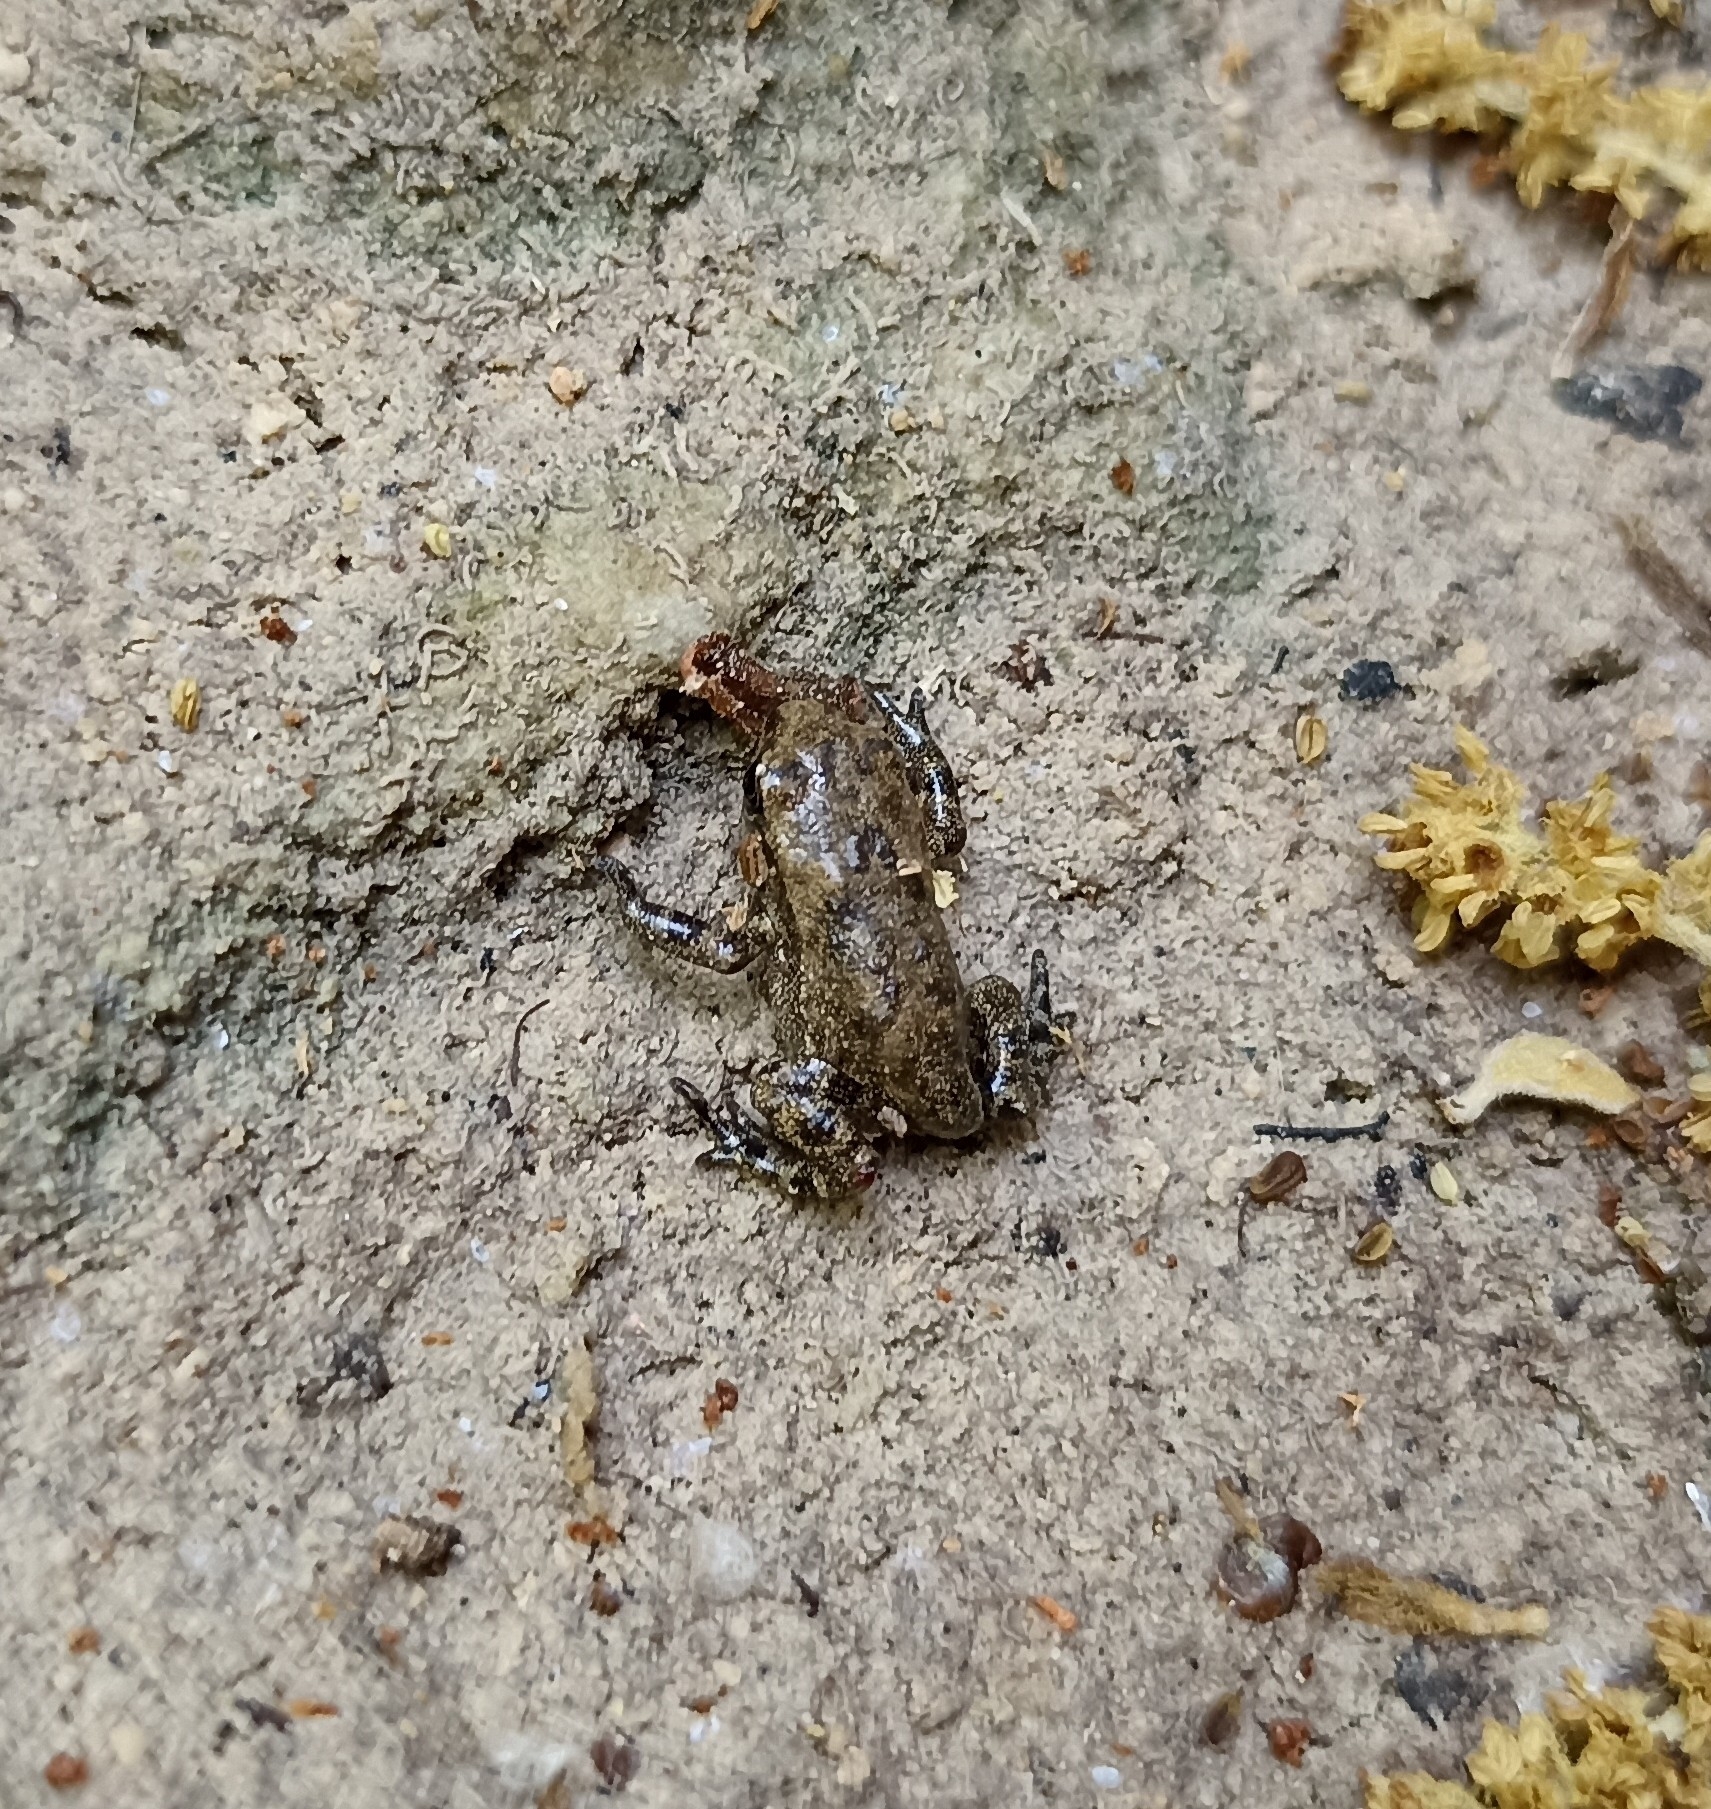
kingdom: Animalia
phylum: Chordata
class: Amphibia
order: Anura
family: Bufonidae
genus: Bufo
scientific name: Bufo spinosus
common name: Western common toad
